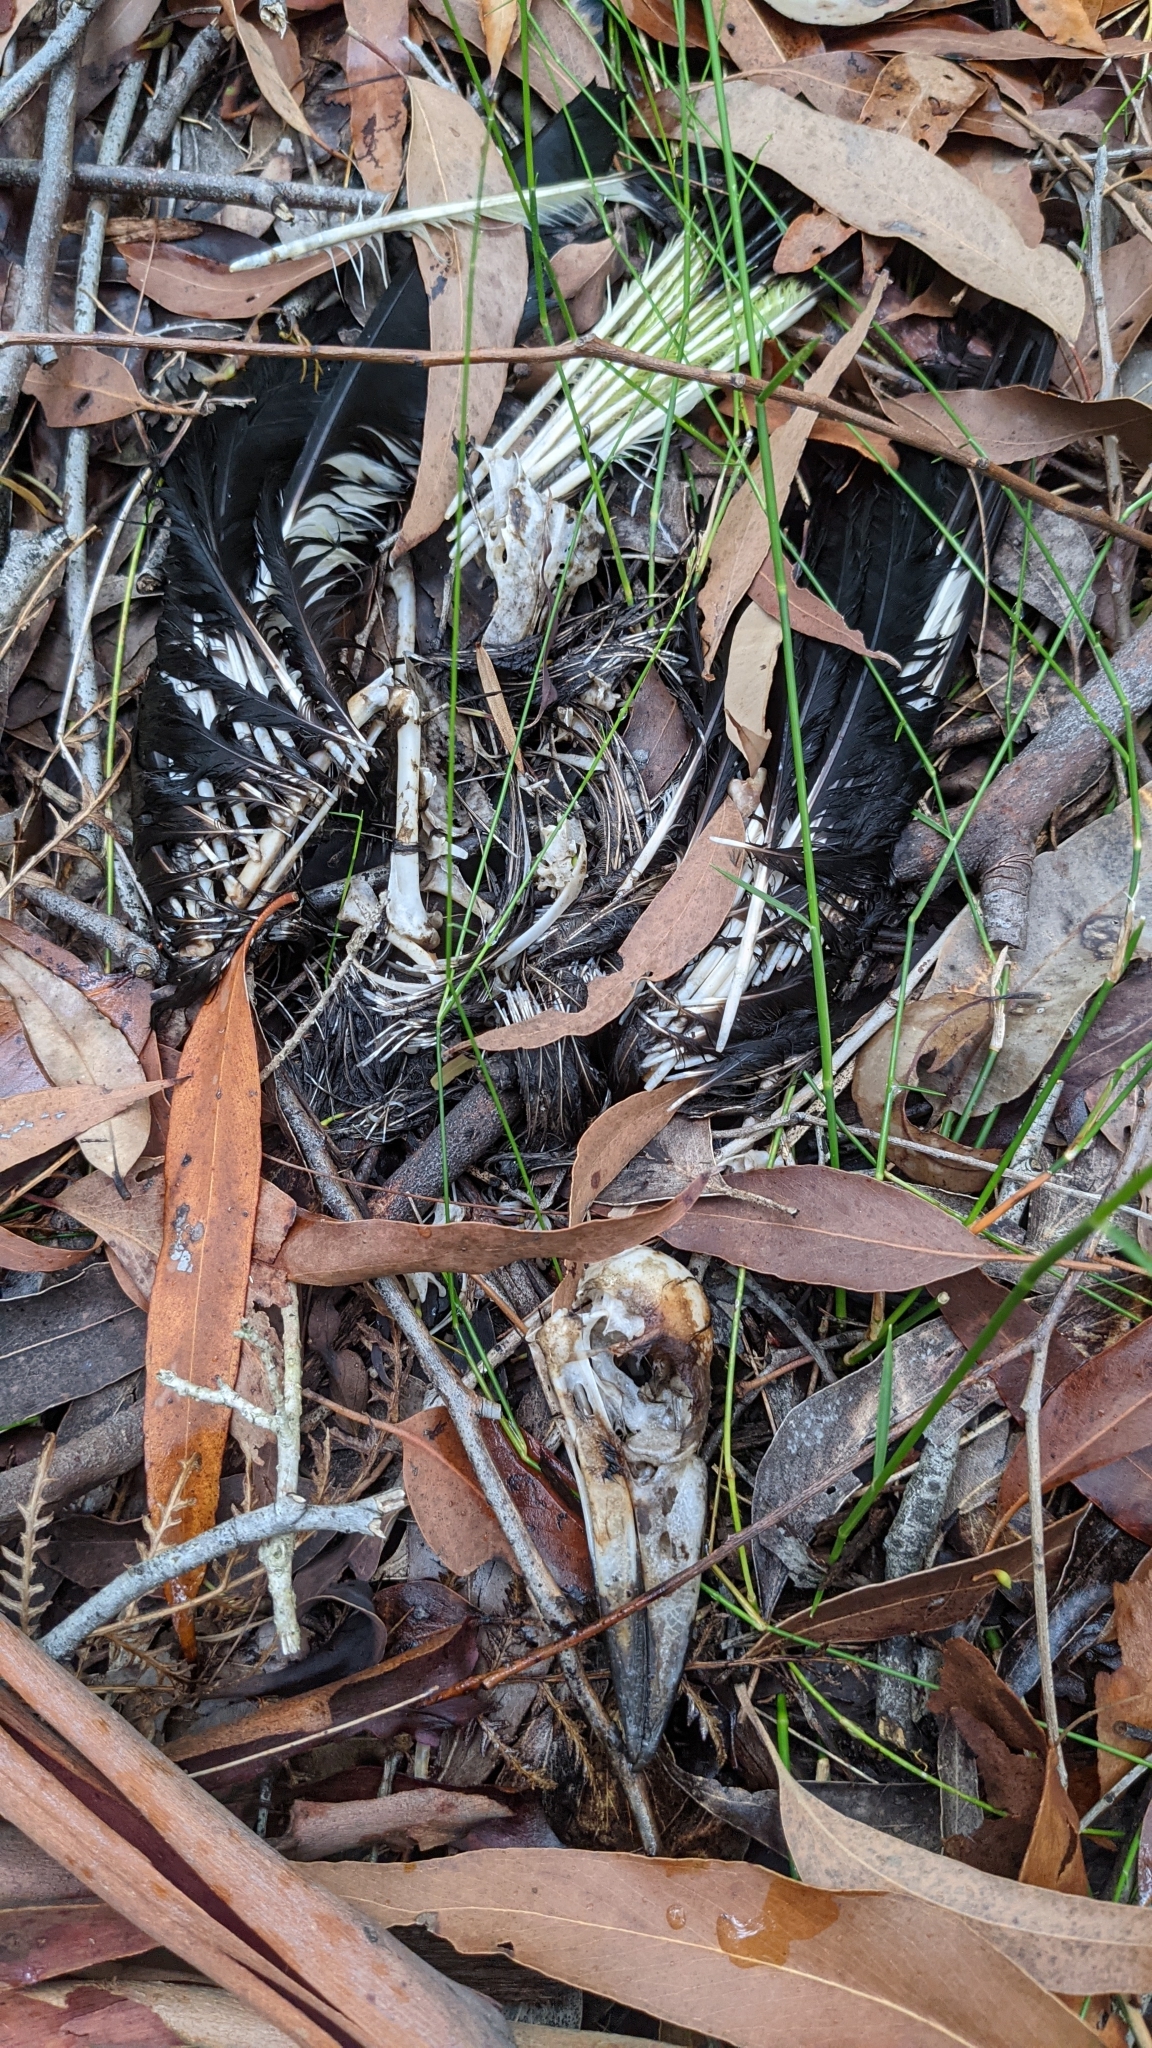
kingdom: Animalia
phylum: Chordata
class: Aves
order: Passeriformes
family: Cracticidae
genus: Gymnorhina
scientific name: Gymnorhina tibicen
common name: Australian magpie
